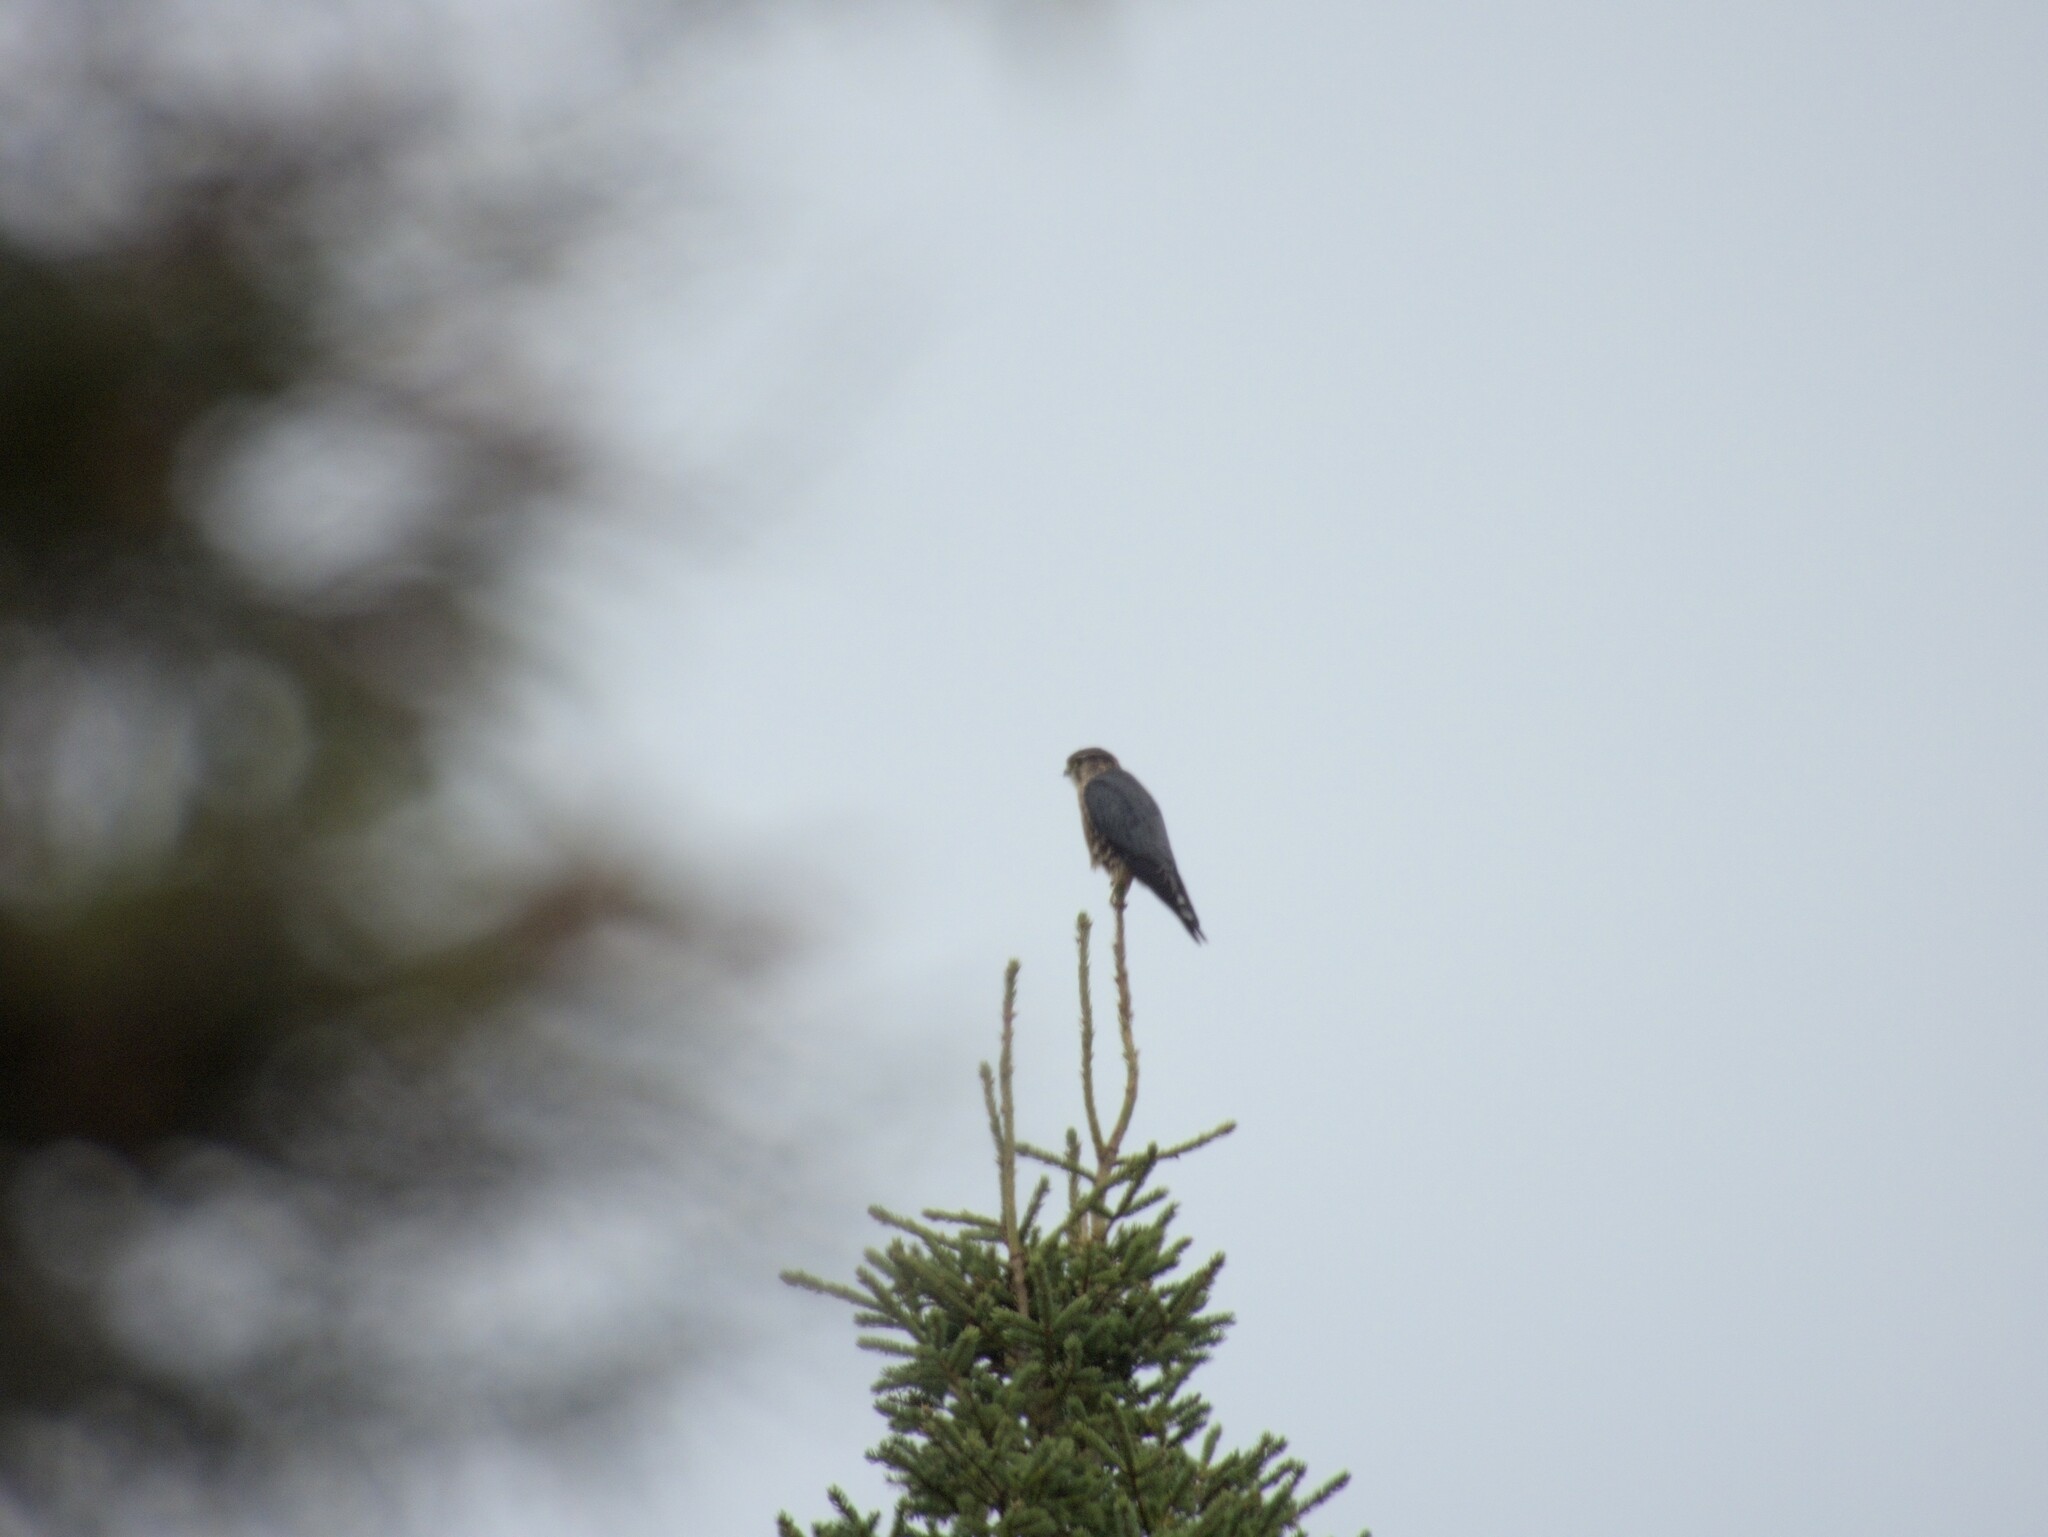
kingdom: Animalia
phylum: Chordata
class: Aves
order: Falconiformes
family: Falconidae
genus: Falco
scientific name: Falco columbarius
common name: Merlin
